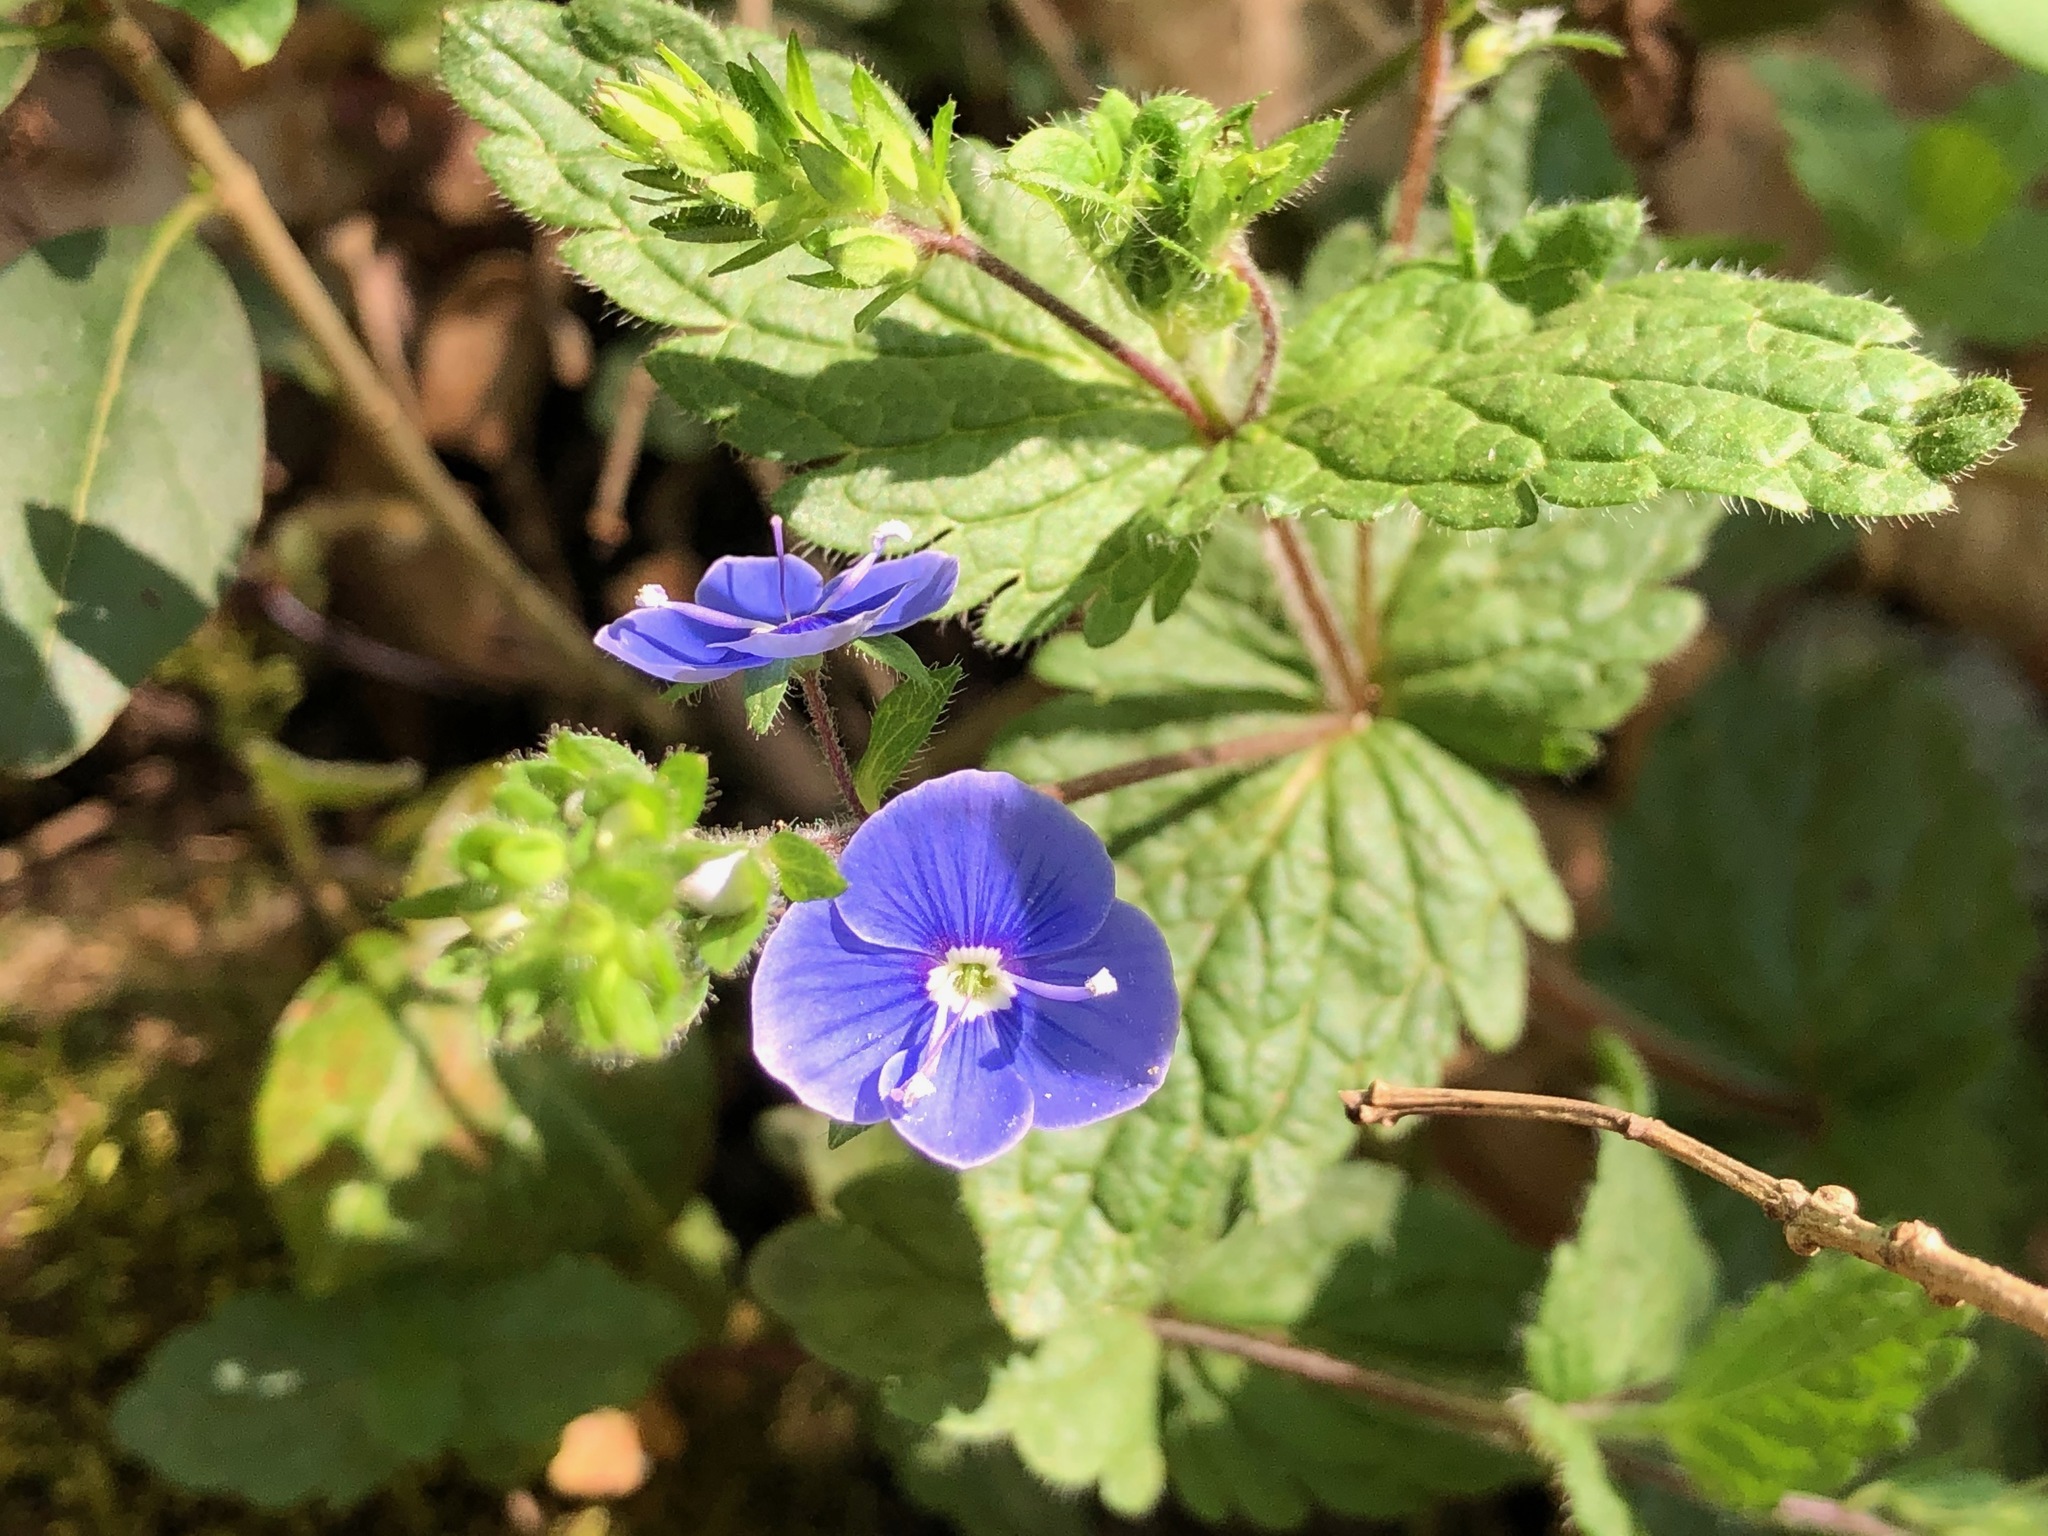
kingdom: Plantae
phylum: Tracheophyta
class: Magnoliopsida
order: Lamiales
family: Plantaginaceae
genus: Veronica
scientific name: Veronica chamaedrys
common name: Germander speedwell
